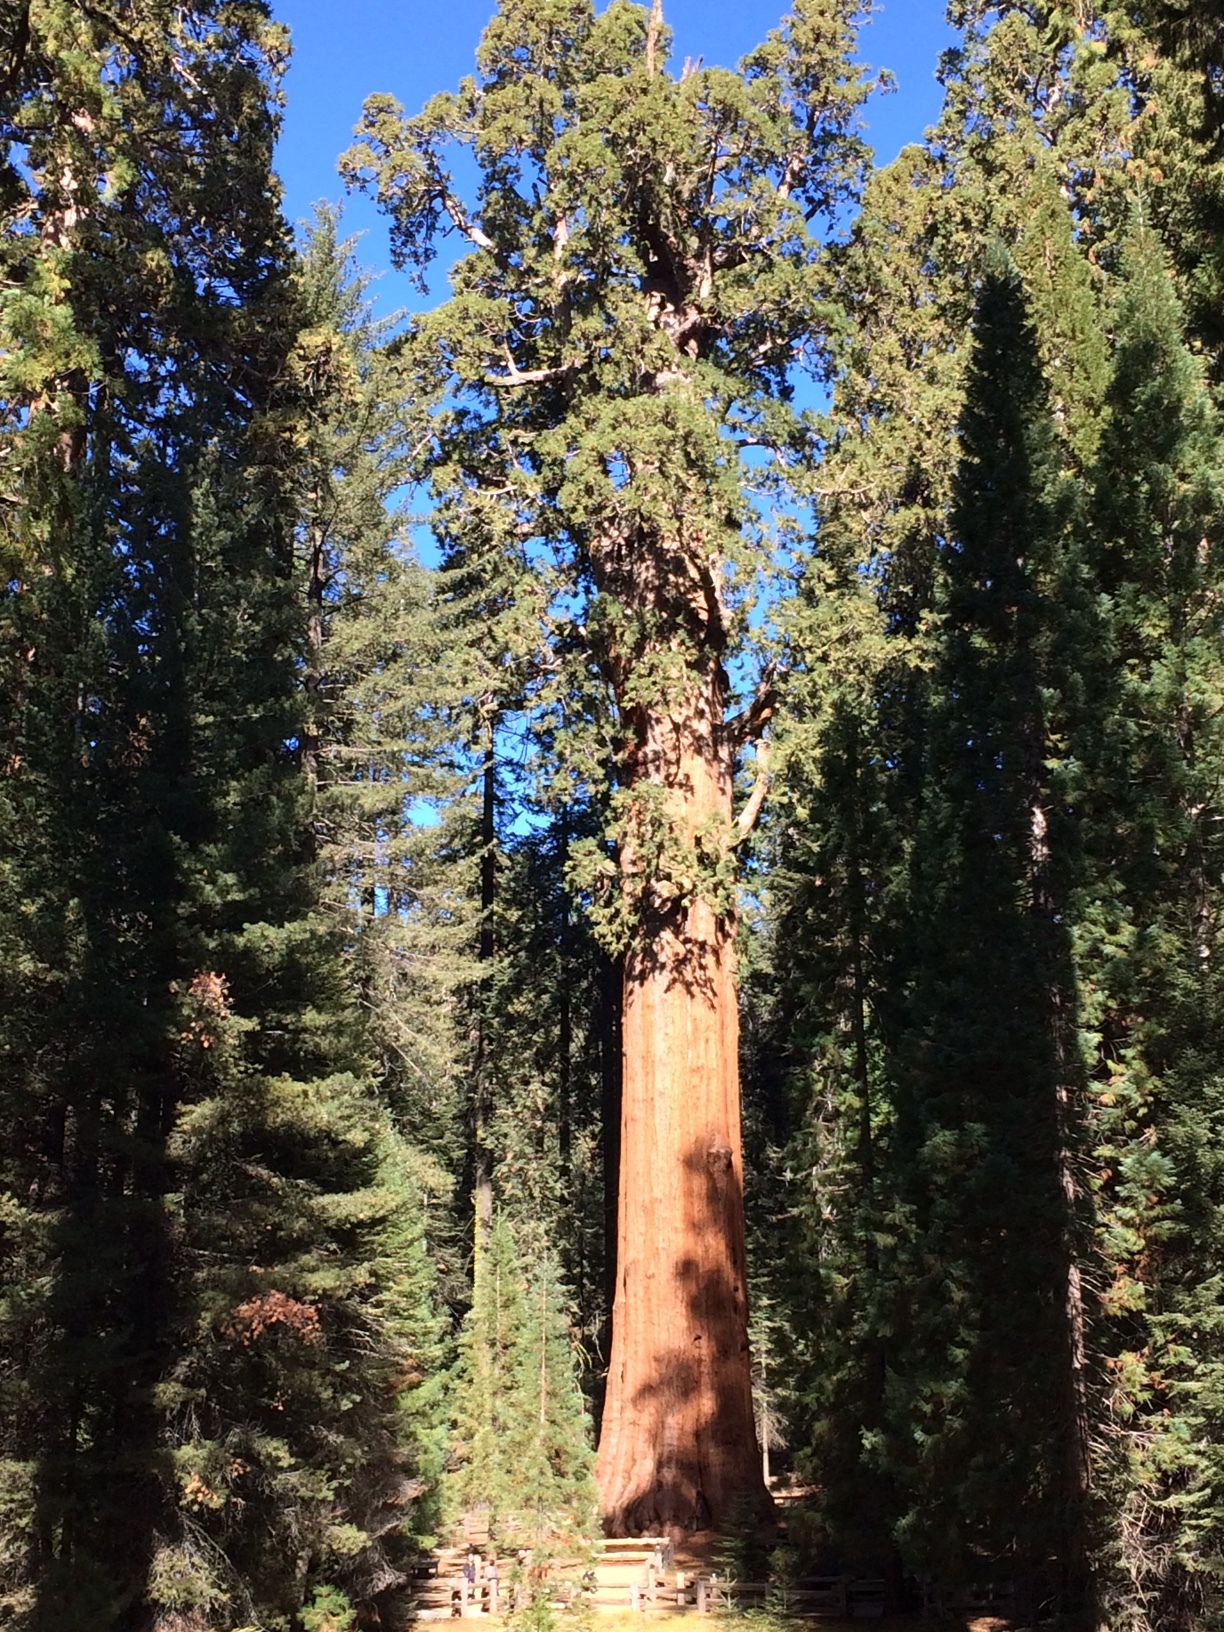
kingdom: Plantae
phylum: Tracheophyta
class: Pinopsida
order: Pinales
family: Cupressaceae
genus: Sequoiadendron
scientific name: Sequoiadendron giganteum
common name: Wellingtonia
